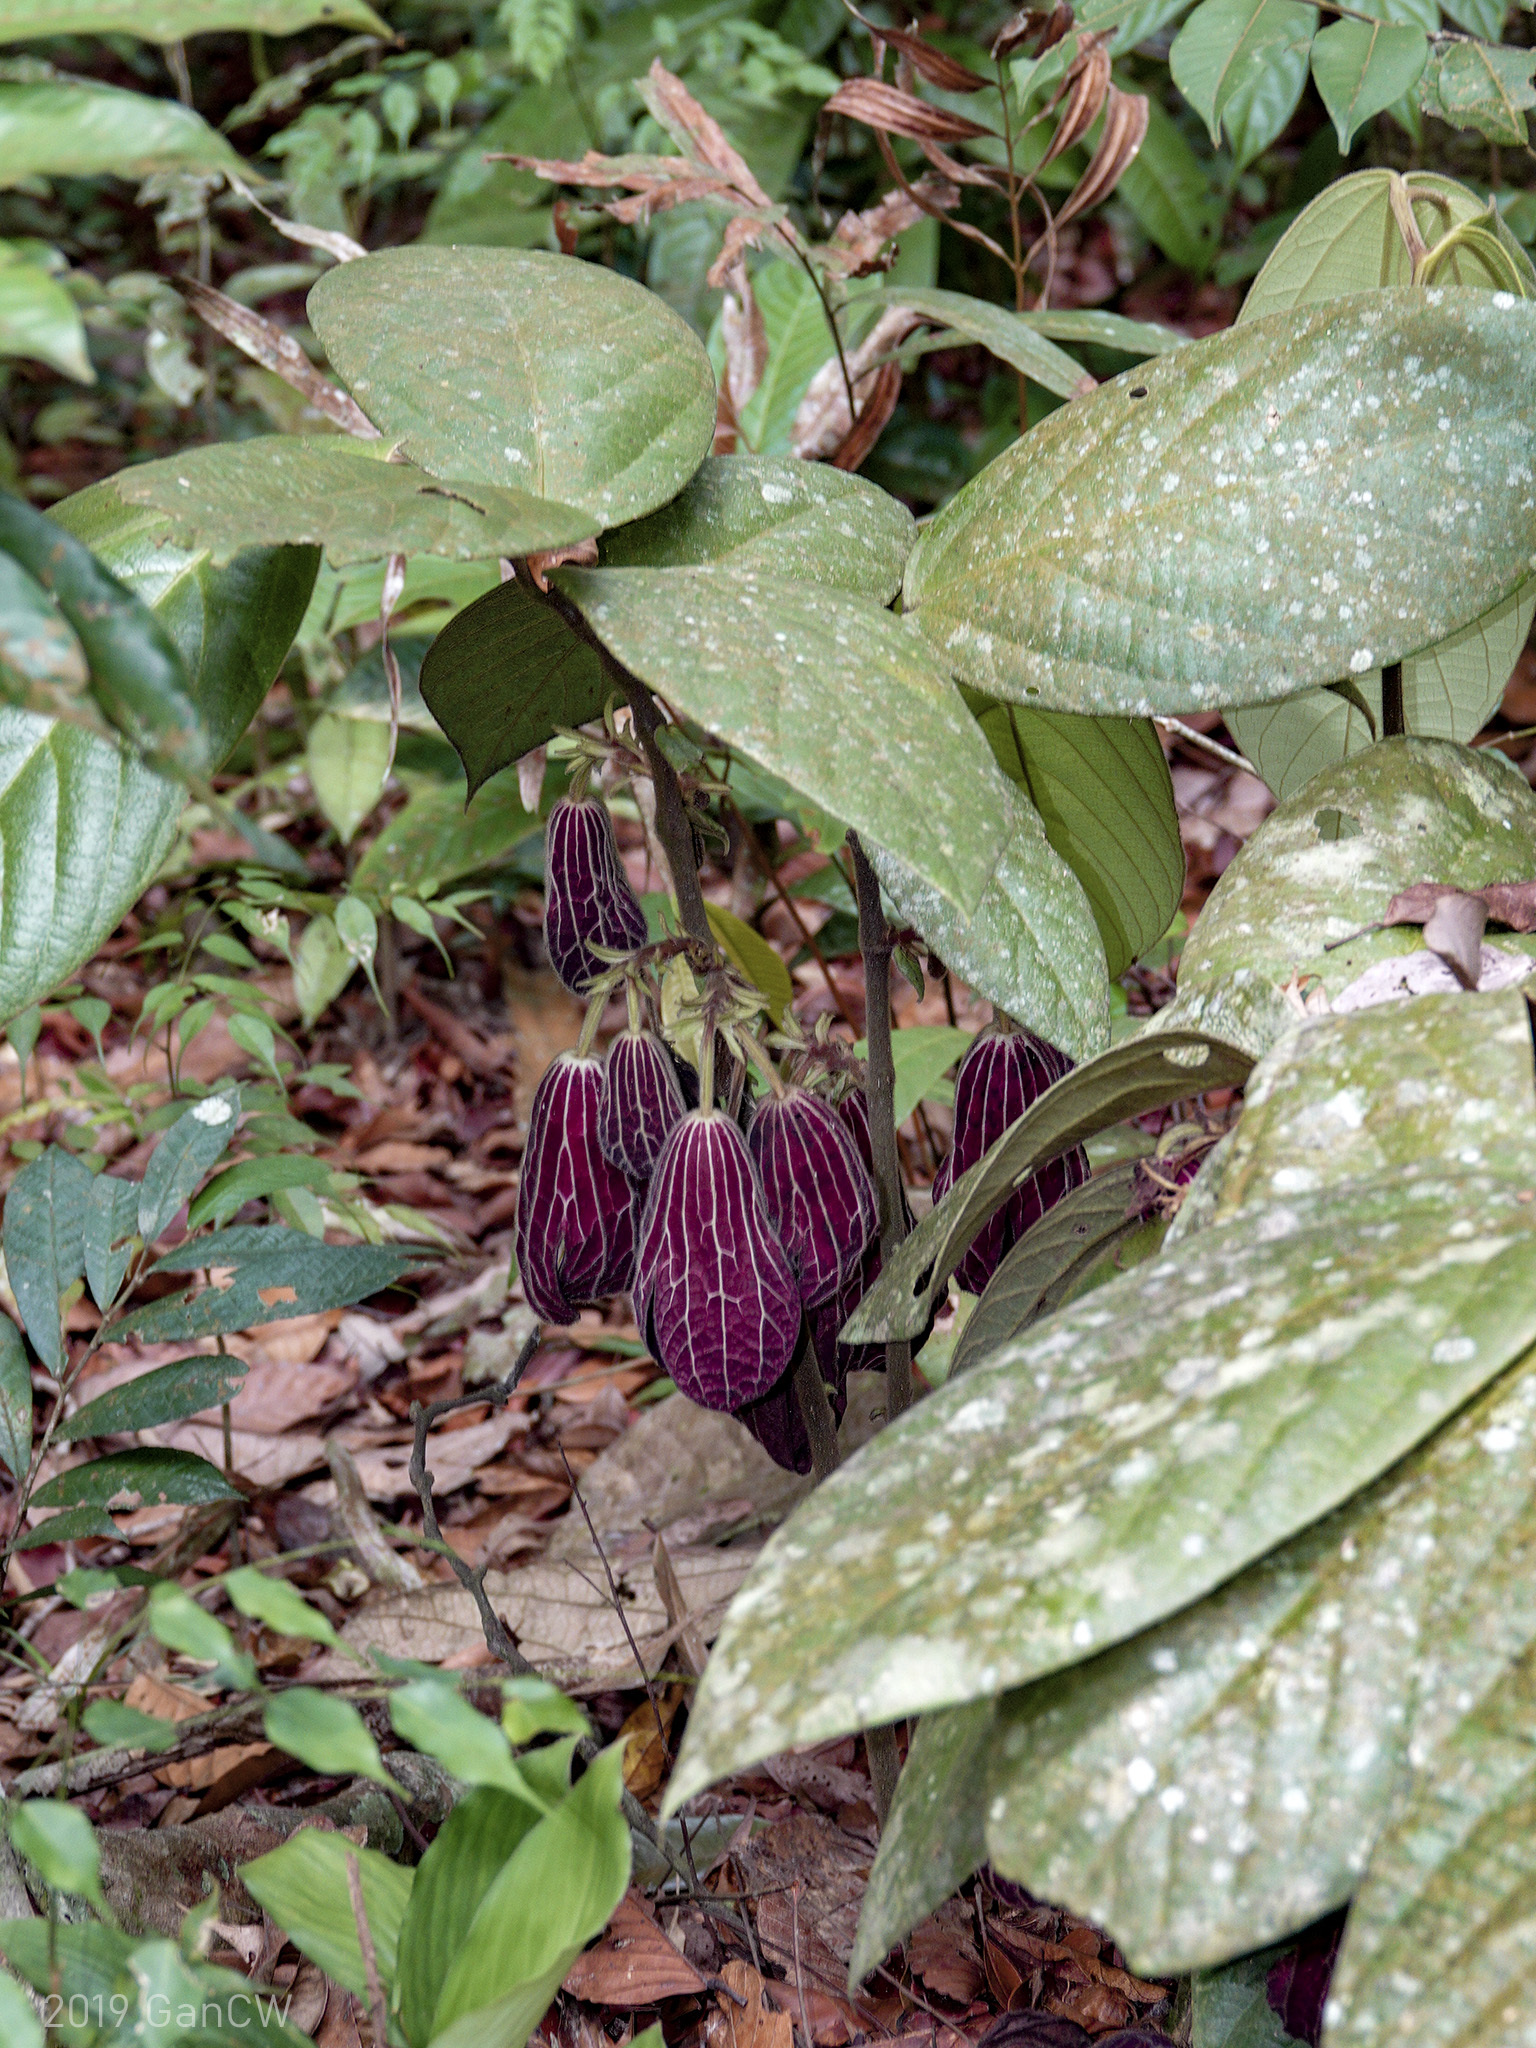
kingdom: Plantae
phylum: Tracheophyta
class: Magnoliopsida
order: Piperales
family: Aristolochiaceae
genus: Thottea
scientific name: Thottea grandiflora
